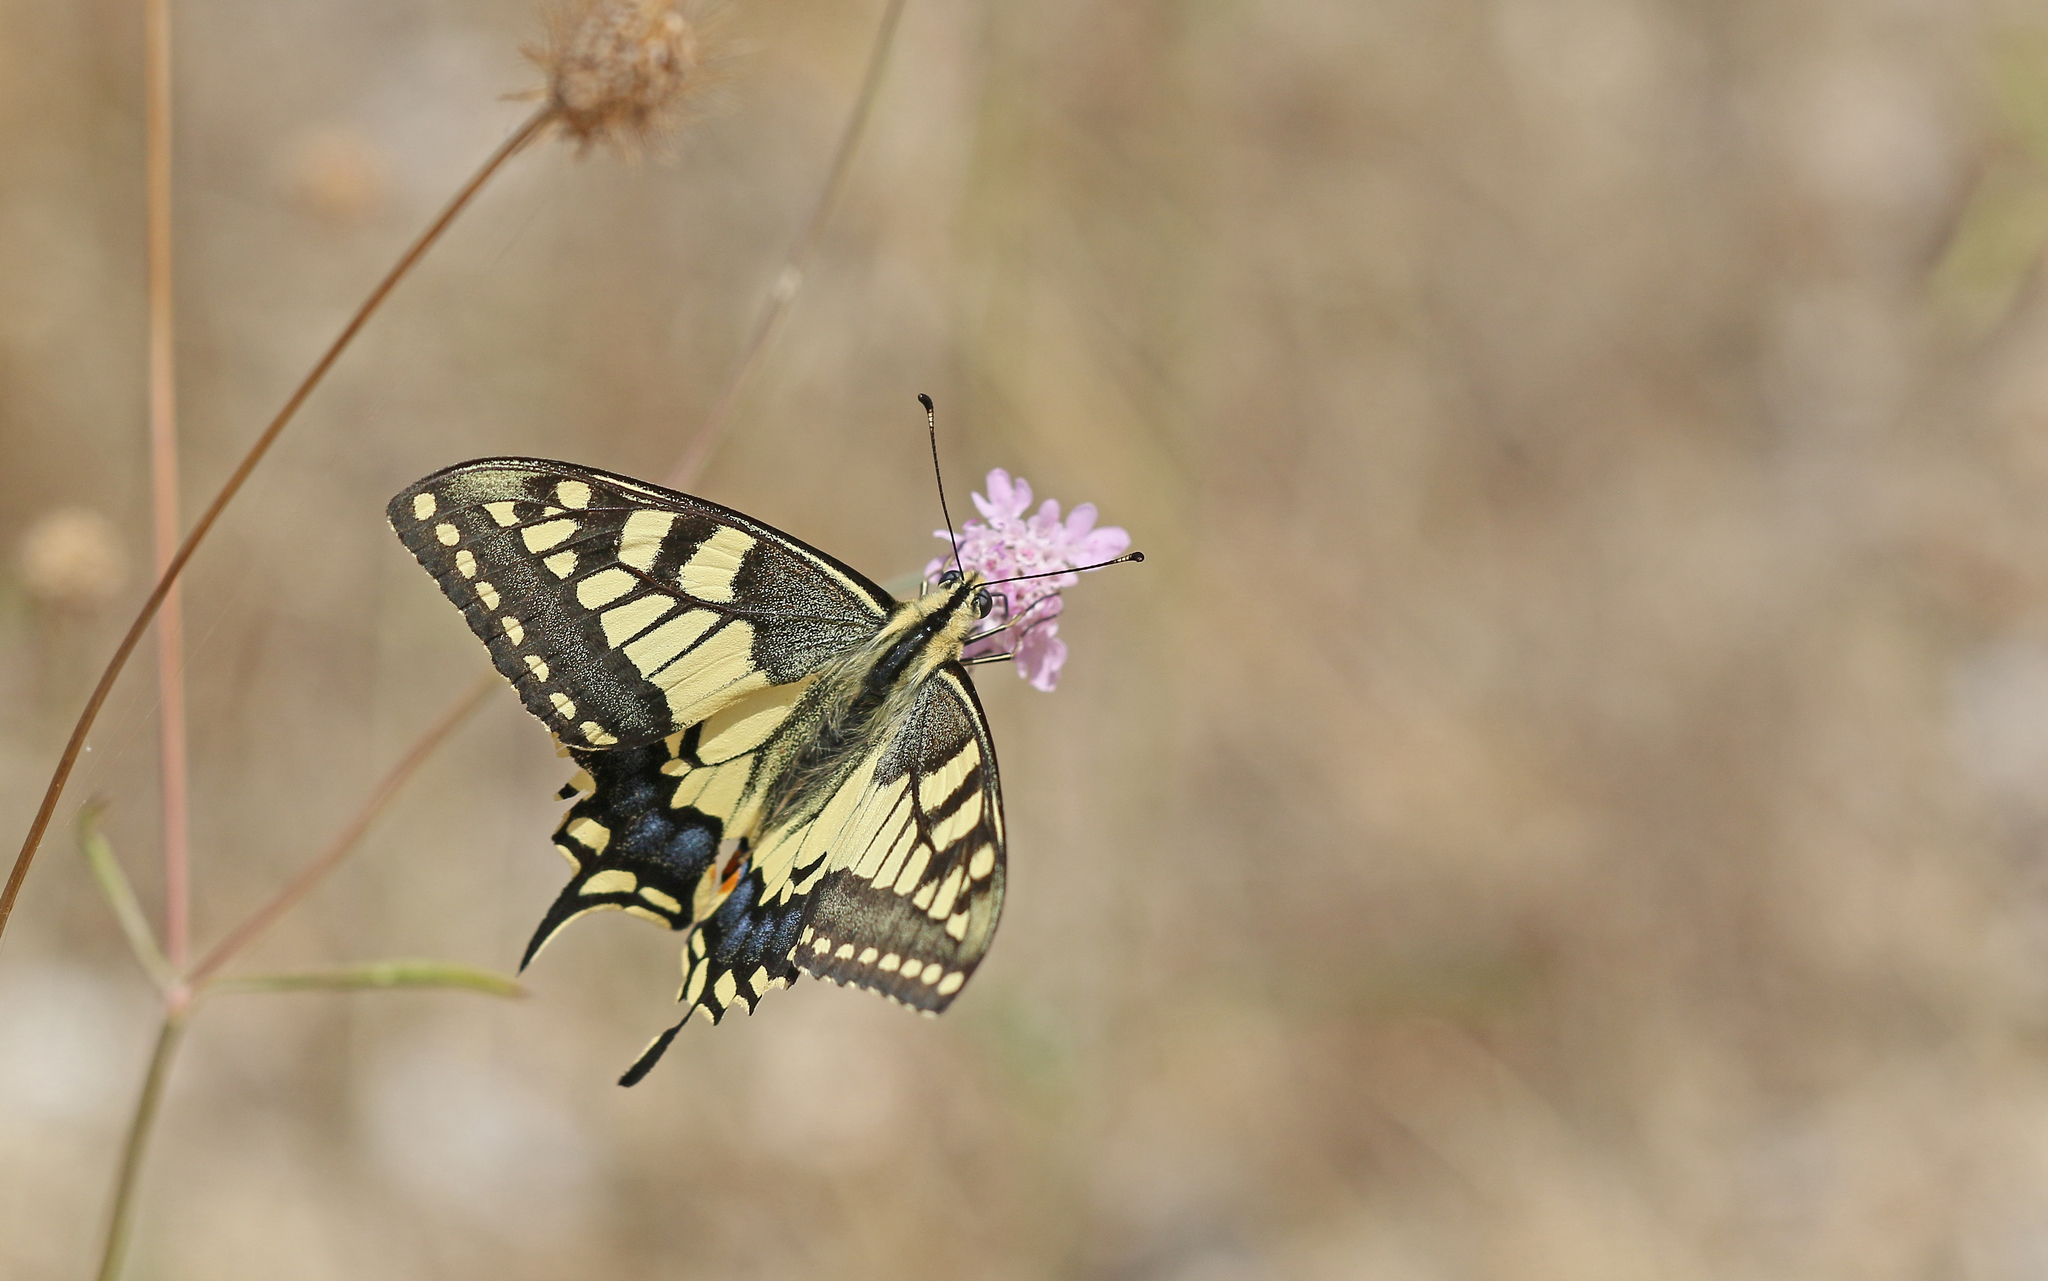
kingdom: Animalia
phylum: Arthropoda
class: Insecta
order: Lepidoptera
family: Papilionidae
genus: Papilio
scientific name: Papilio machaon
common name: Swallowtail
